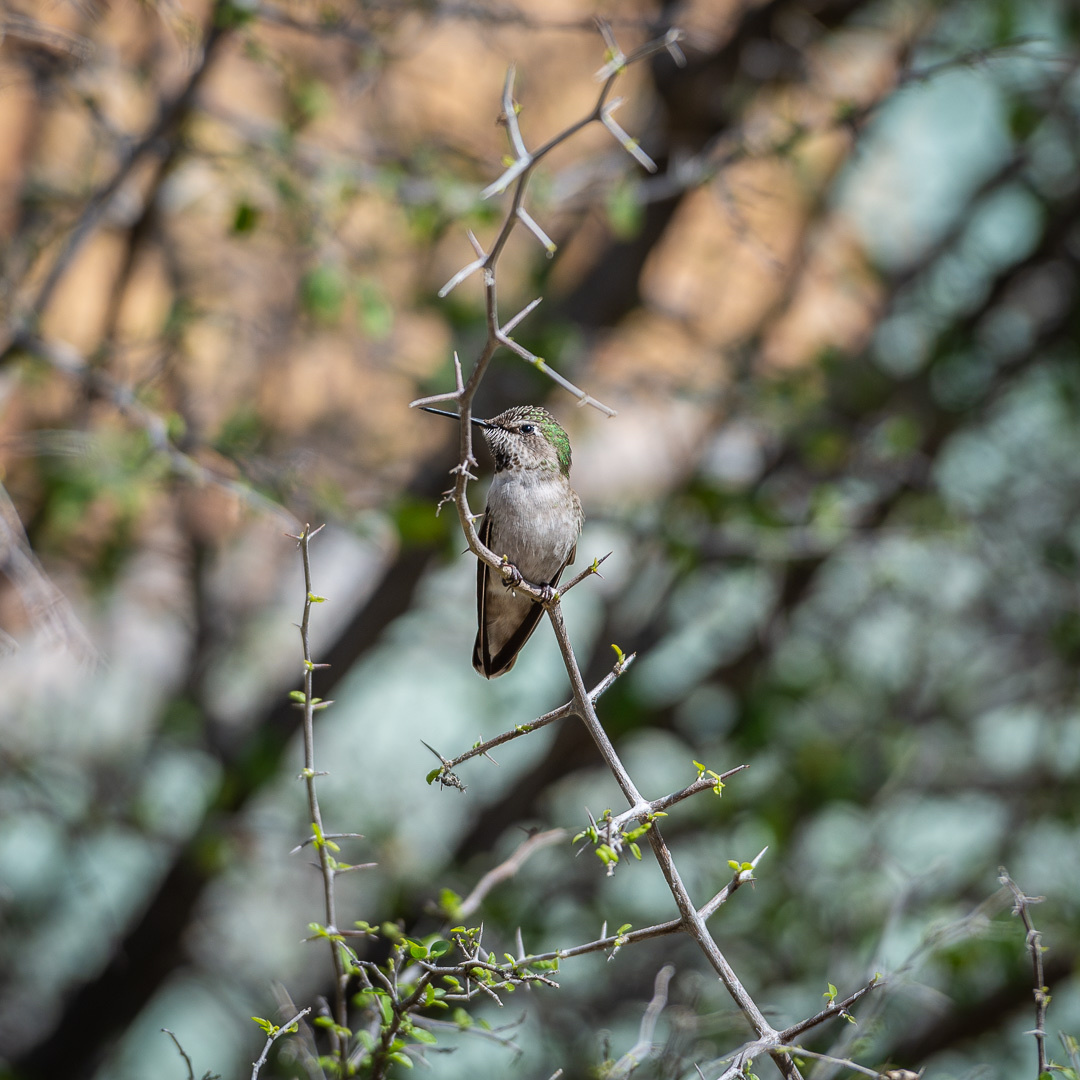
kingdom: Animalia
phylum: Chordata
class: Aves
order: Apodiformes
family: Trochilidae
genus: Calypte
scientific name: Calypte anna
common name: Anna's hummingbird
